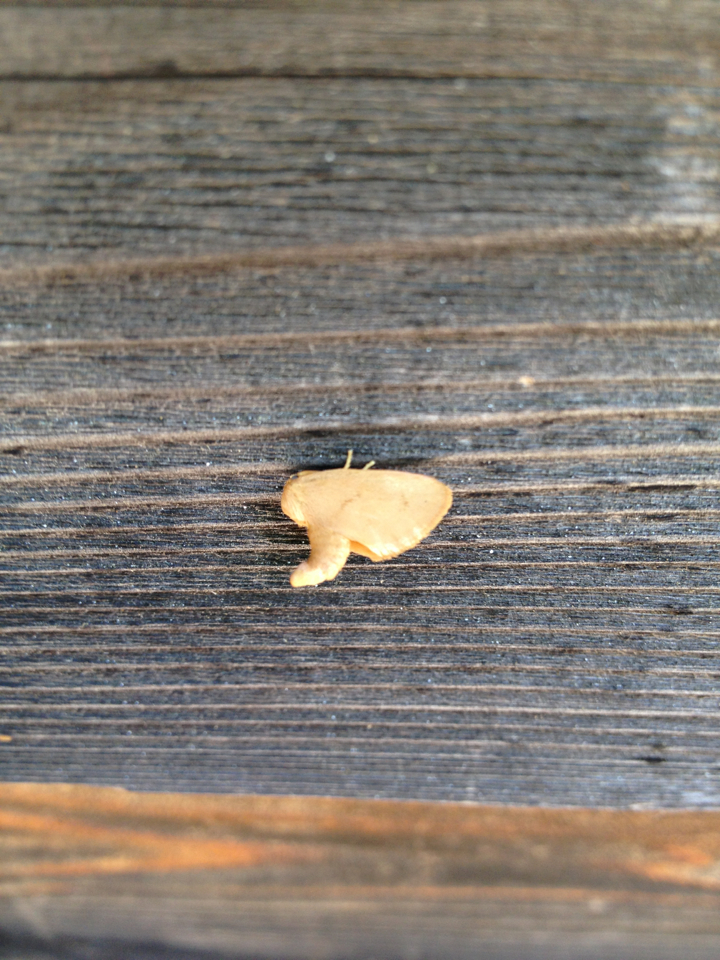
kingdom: Animalia
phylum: Arthropoda
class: Insecta
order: Lepidoptera
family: Limacodidae
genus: Tortricidia
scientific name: Tortricidia flexuosa
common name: Abbreviated button slug moth
